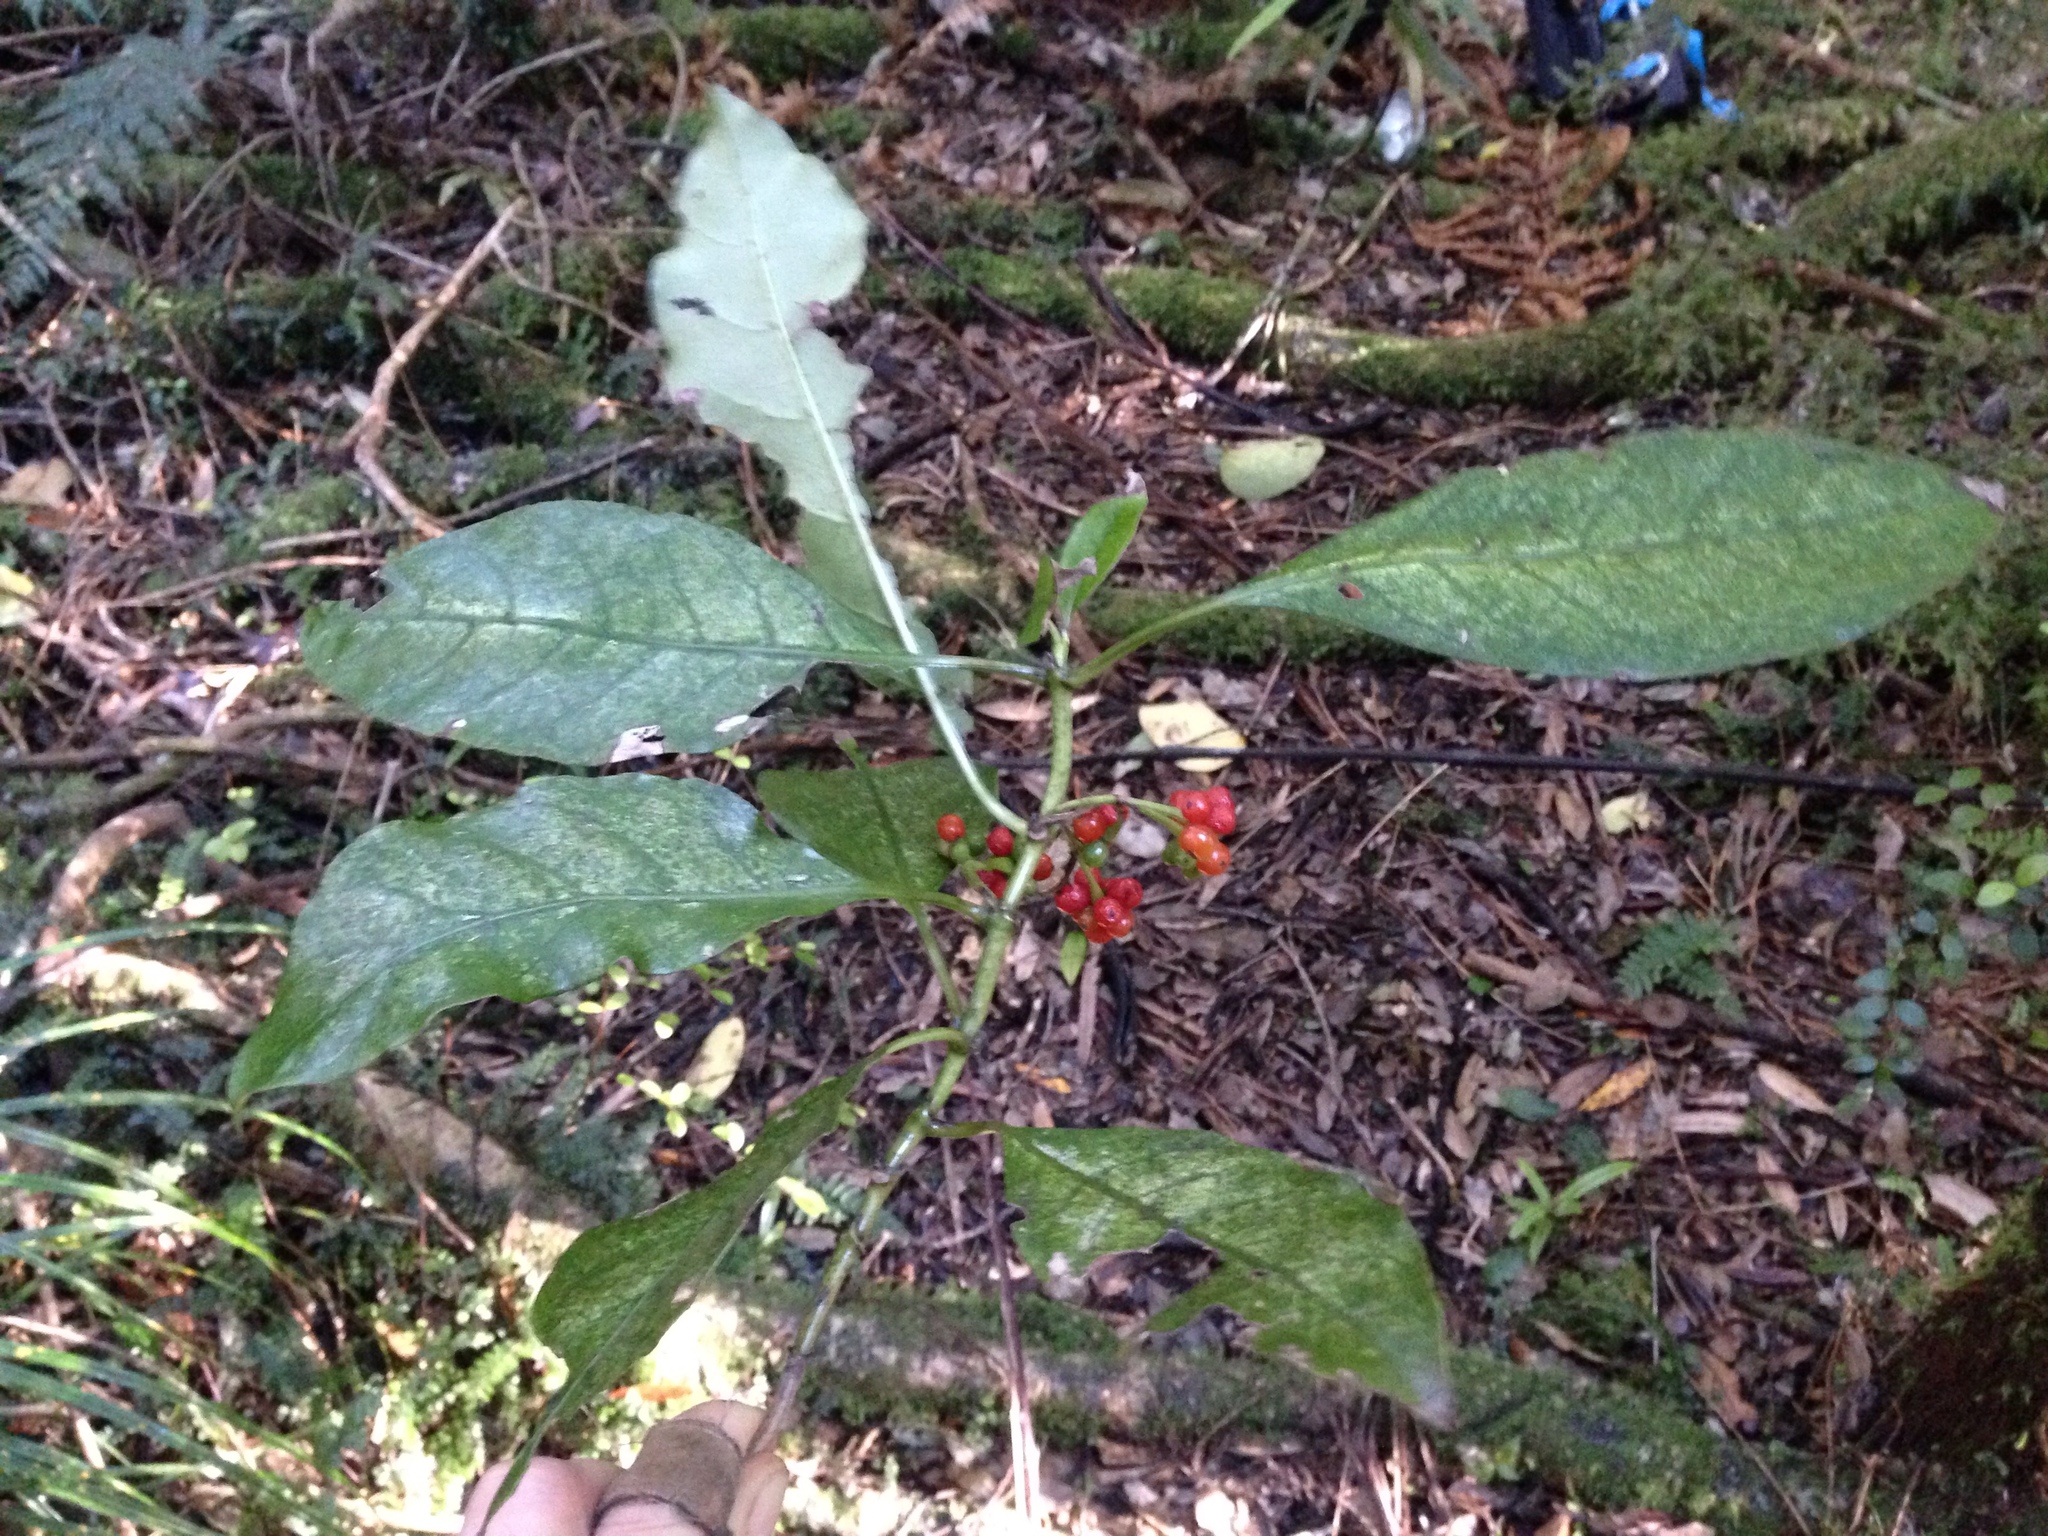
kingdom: Plantae
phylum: Tracheophyta
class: Magnoliopsida
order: Gentianales
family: Rubiaceae
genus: Coprosma
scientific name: Coprosma autumnalis
